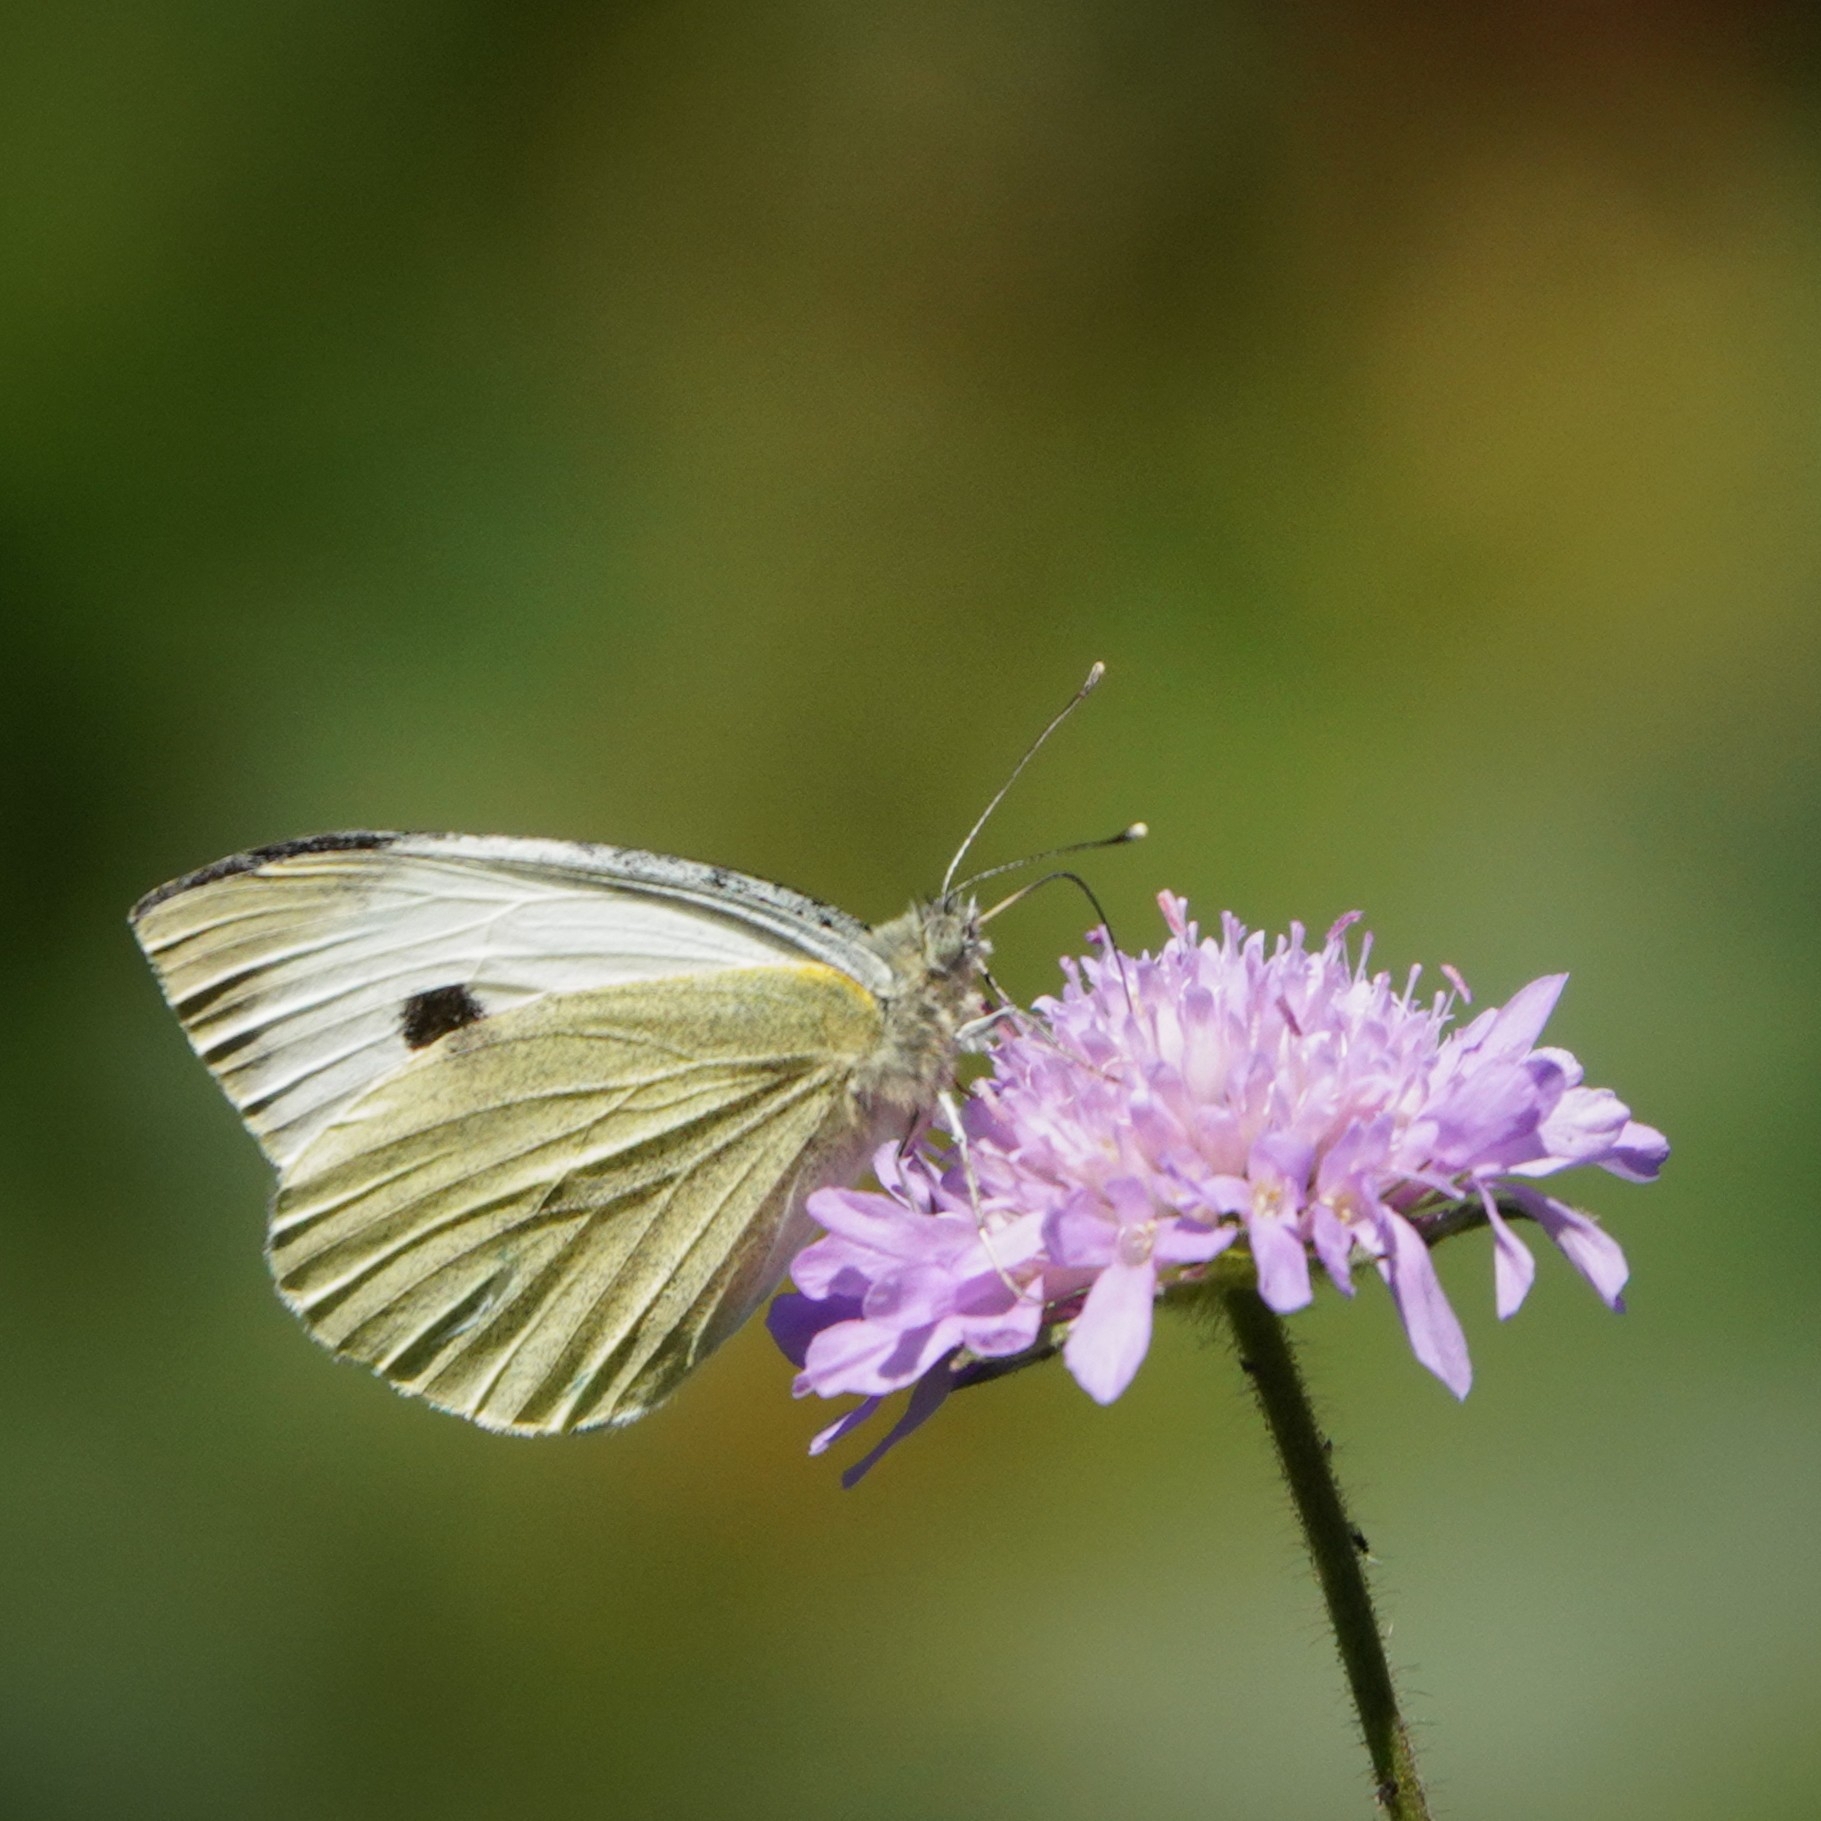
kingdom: Animalia
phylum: Arthropoda
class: Insecta
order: Lepidoptera
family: Pieridae
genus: Pieris
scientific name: Pieris brassicae
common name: Large white
